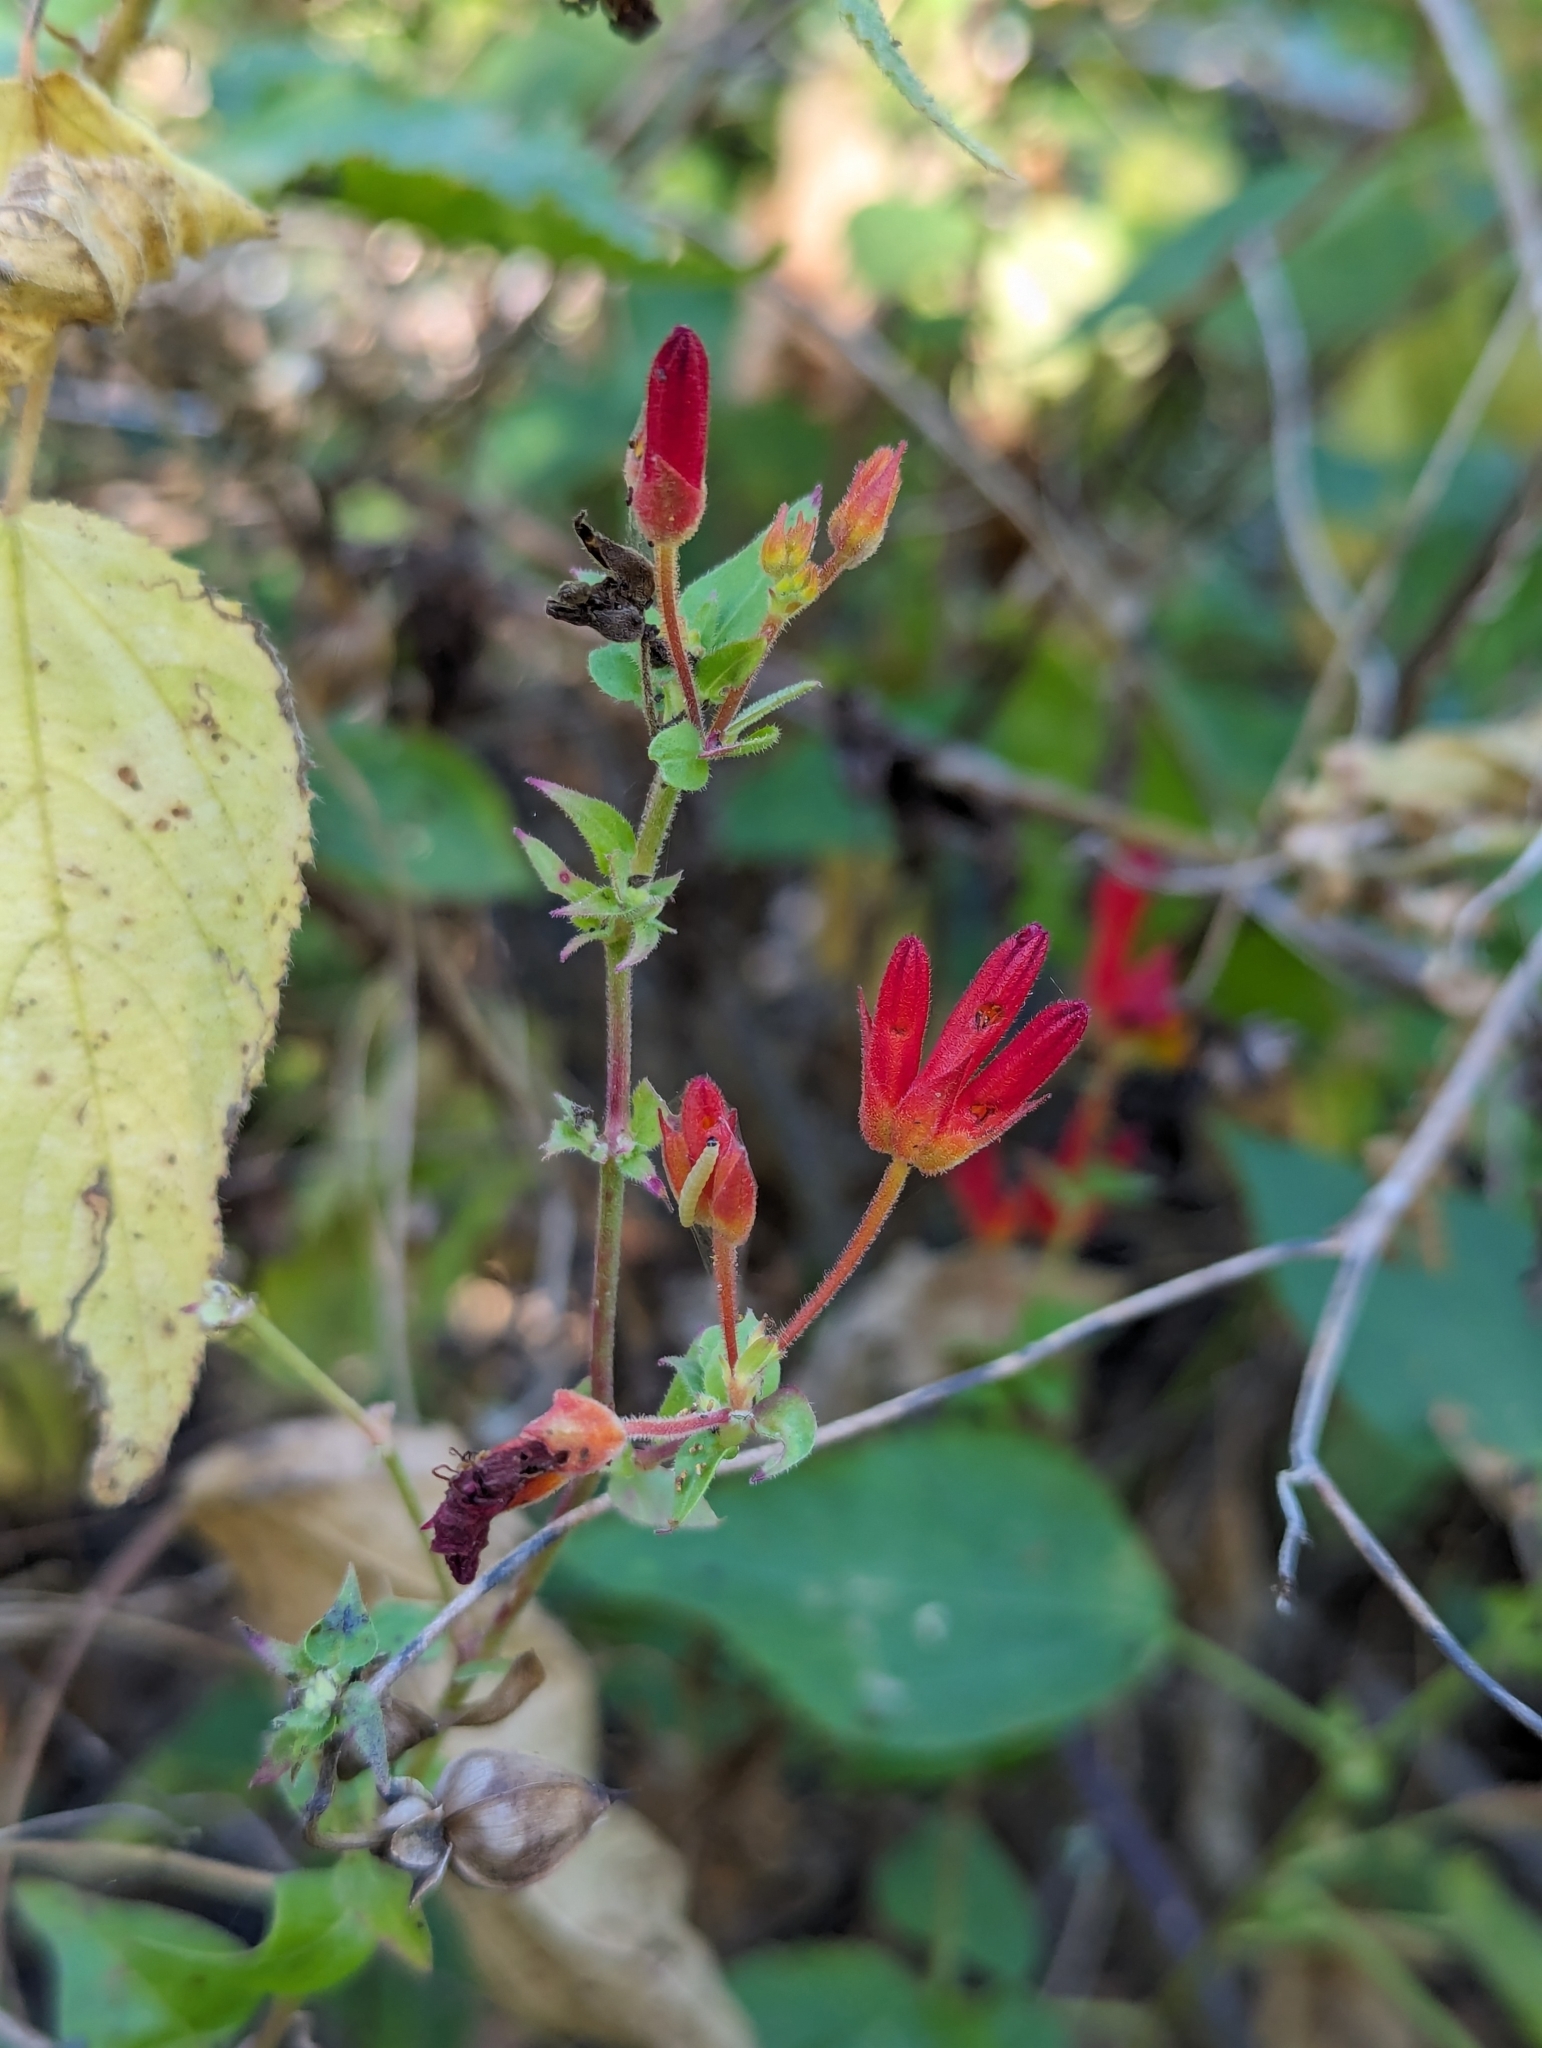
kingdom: Plantae
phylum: Tracheophyta
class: Magnoliopsida
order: Caryophyllales
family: Nyctaginaceae
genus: Mirabilis
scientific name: Mirabilis triflora
